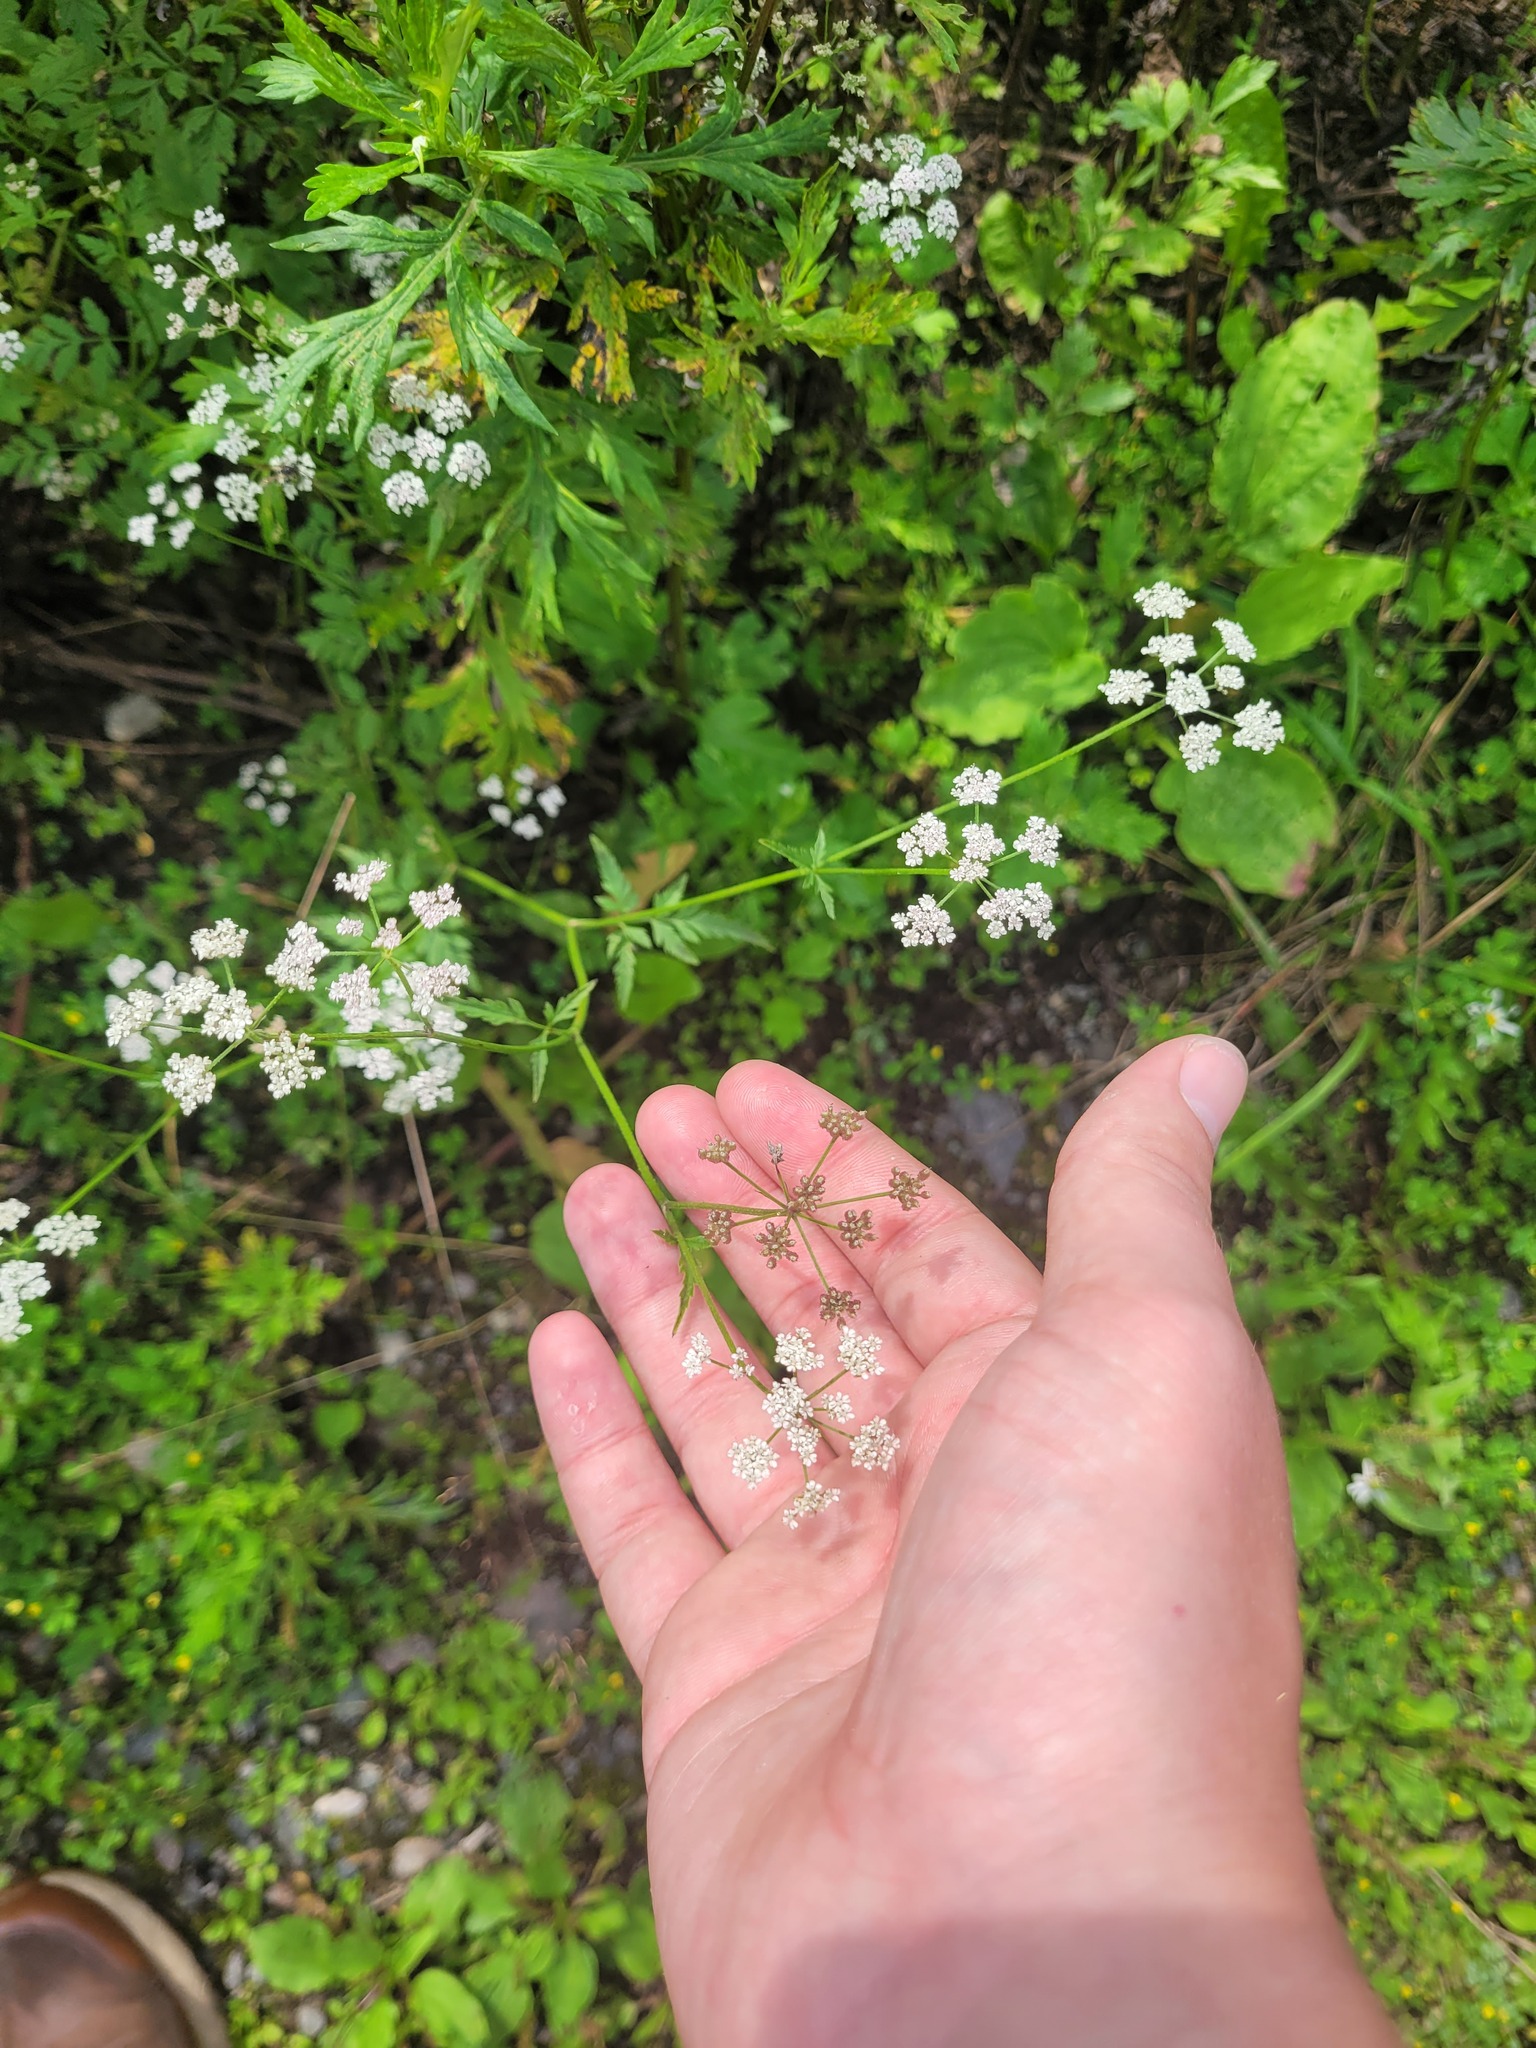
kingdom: Plantae
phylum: Tracheophyta
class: Magnoliopsida
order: Apiales
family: Apiaceae
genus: Torilis
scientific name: Torilis japonica
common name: Upright hedge-parsley
